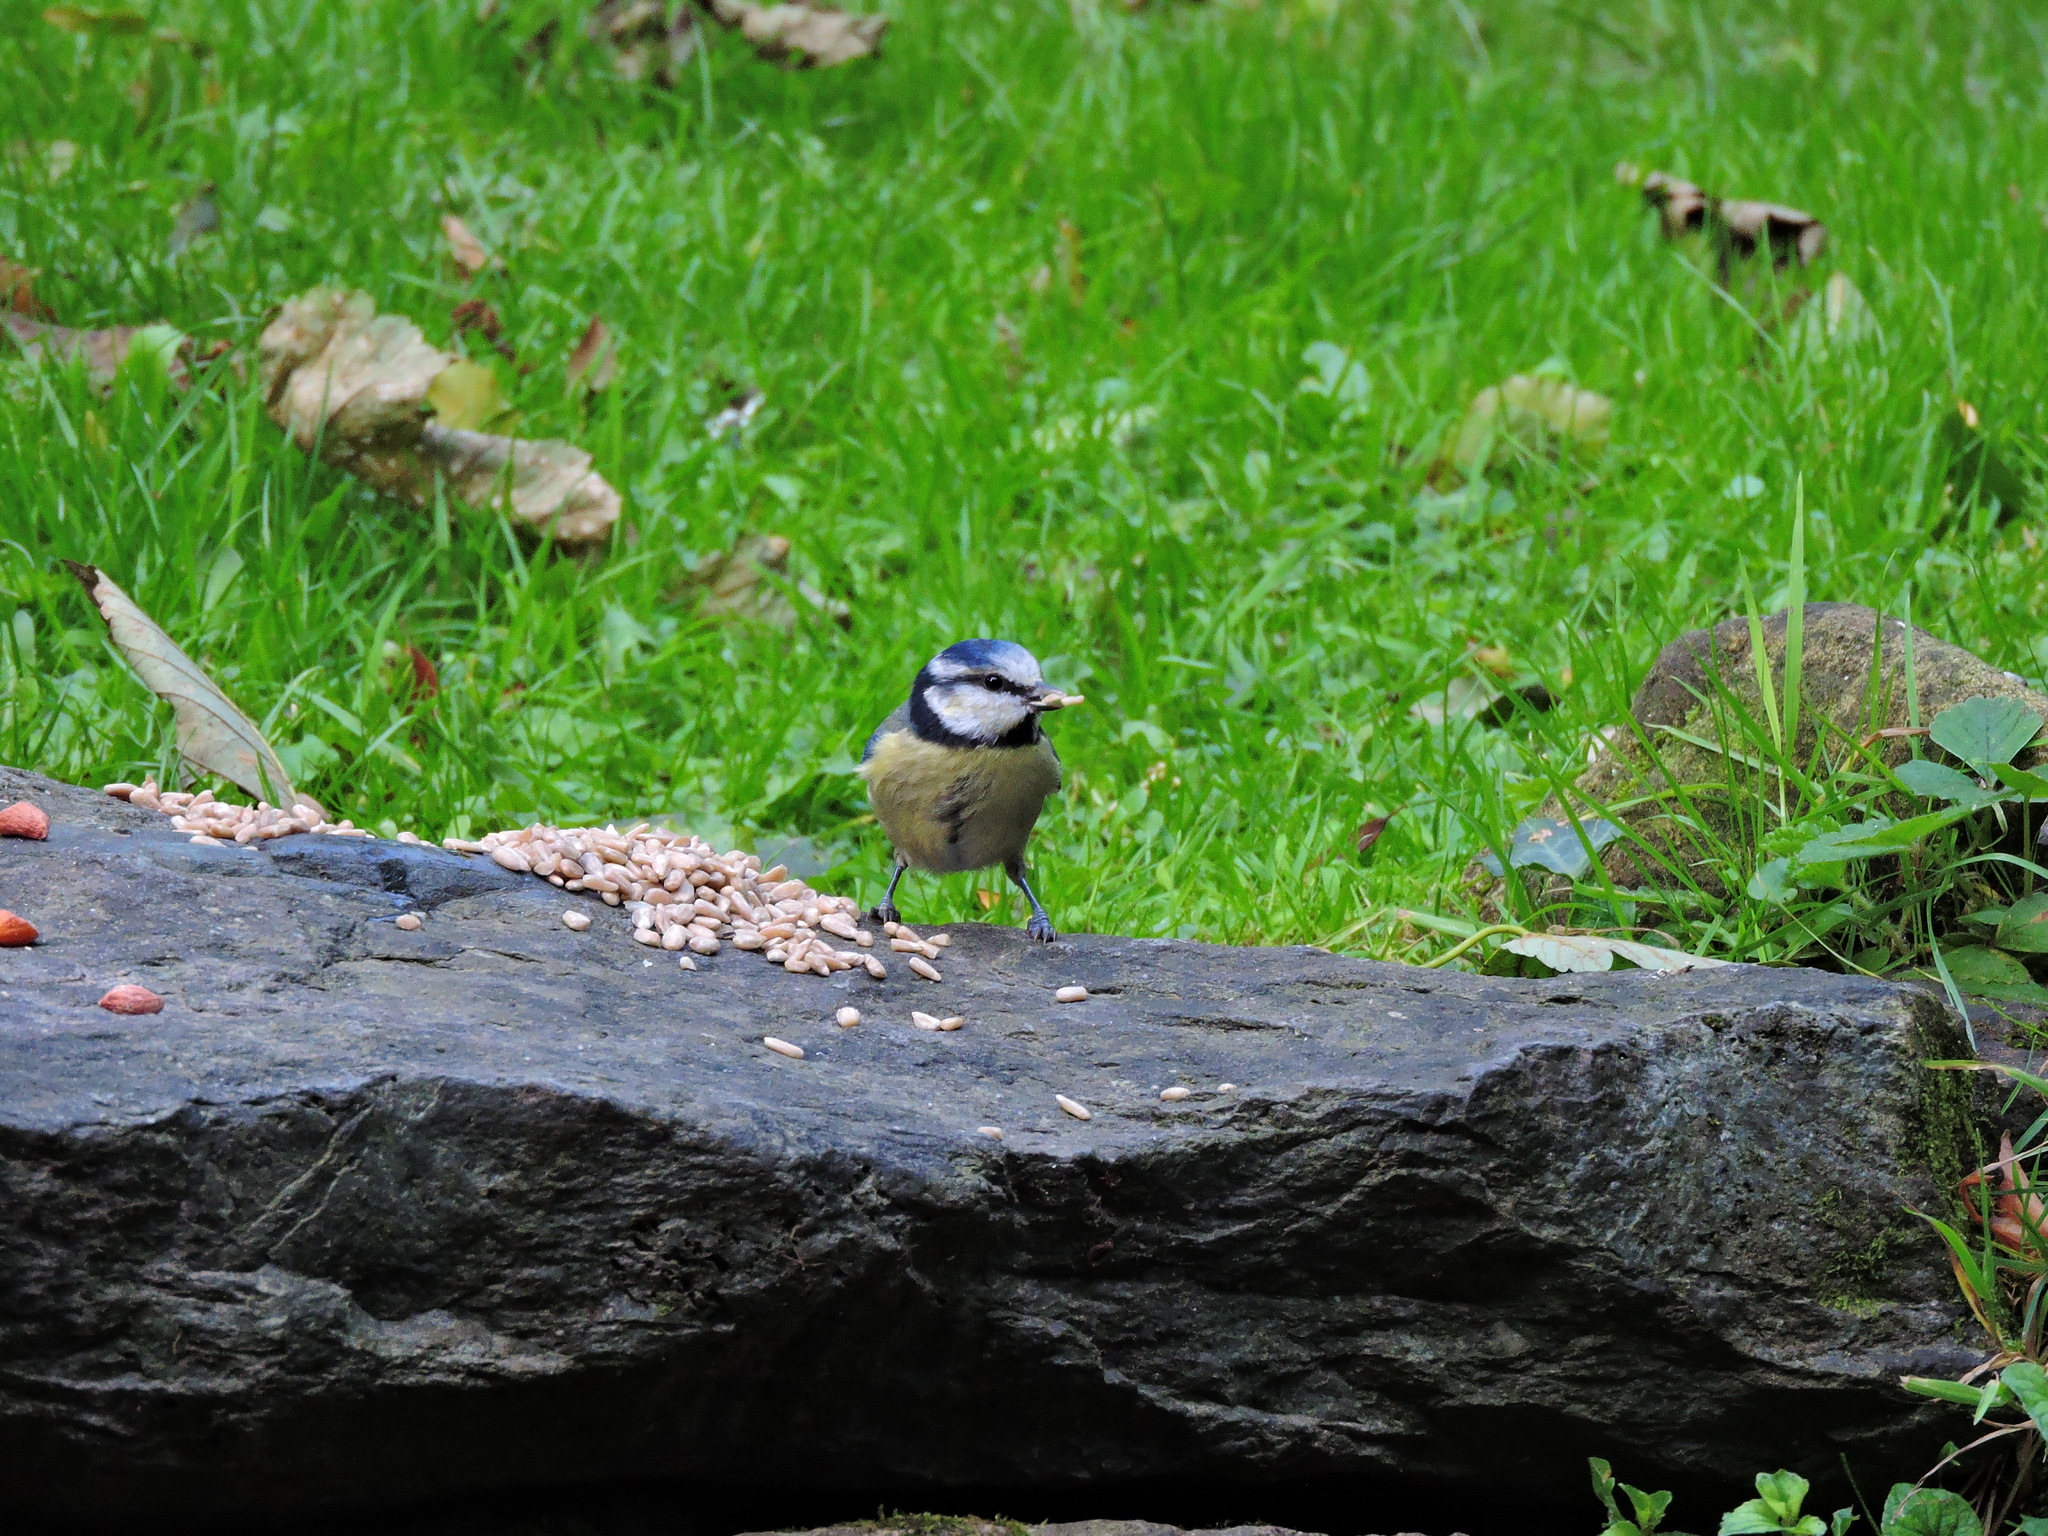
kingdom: Animalia
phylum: Chordata
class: Aves
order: Passeriformes
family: Paridae
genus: Cyanistes
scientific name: Cyanistes caeruleus
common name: Eurasian blue tit
